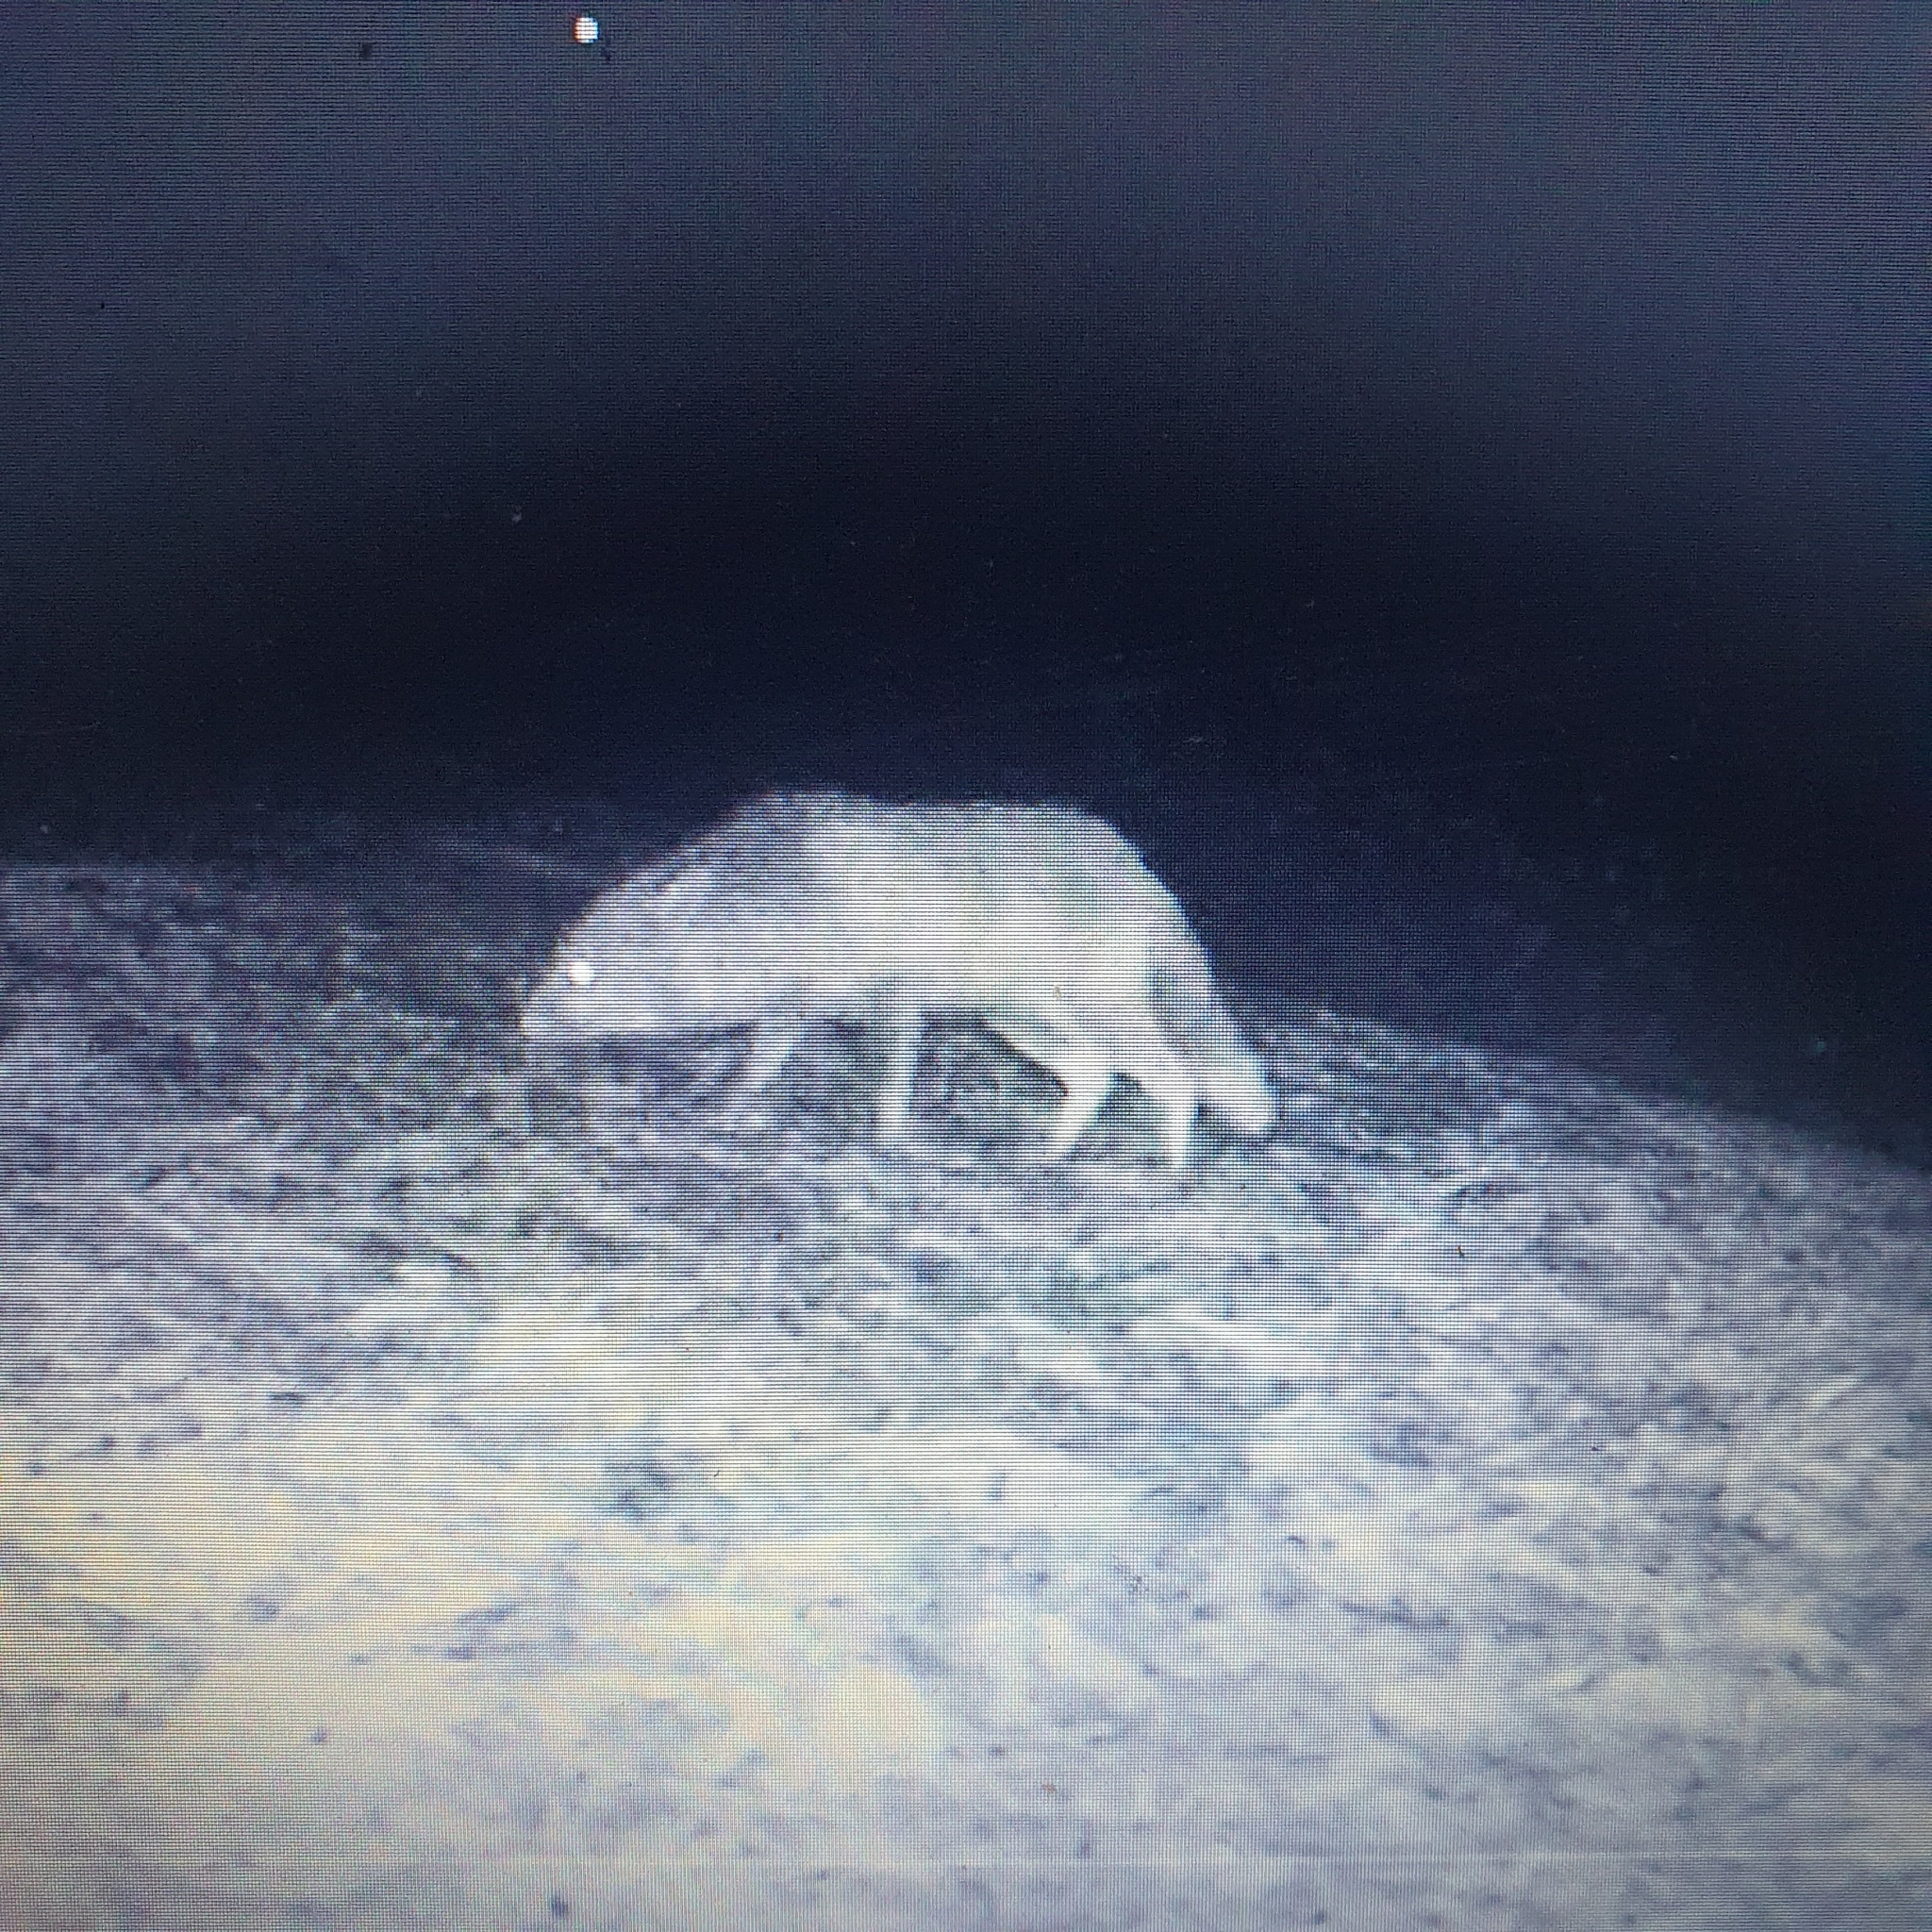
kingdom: Animalia
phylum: Chordata
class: Mammalia
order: Carnivora
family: Canidae
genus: Vulpes
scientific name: Vulpes vulpes
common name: Red fox
